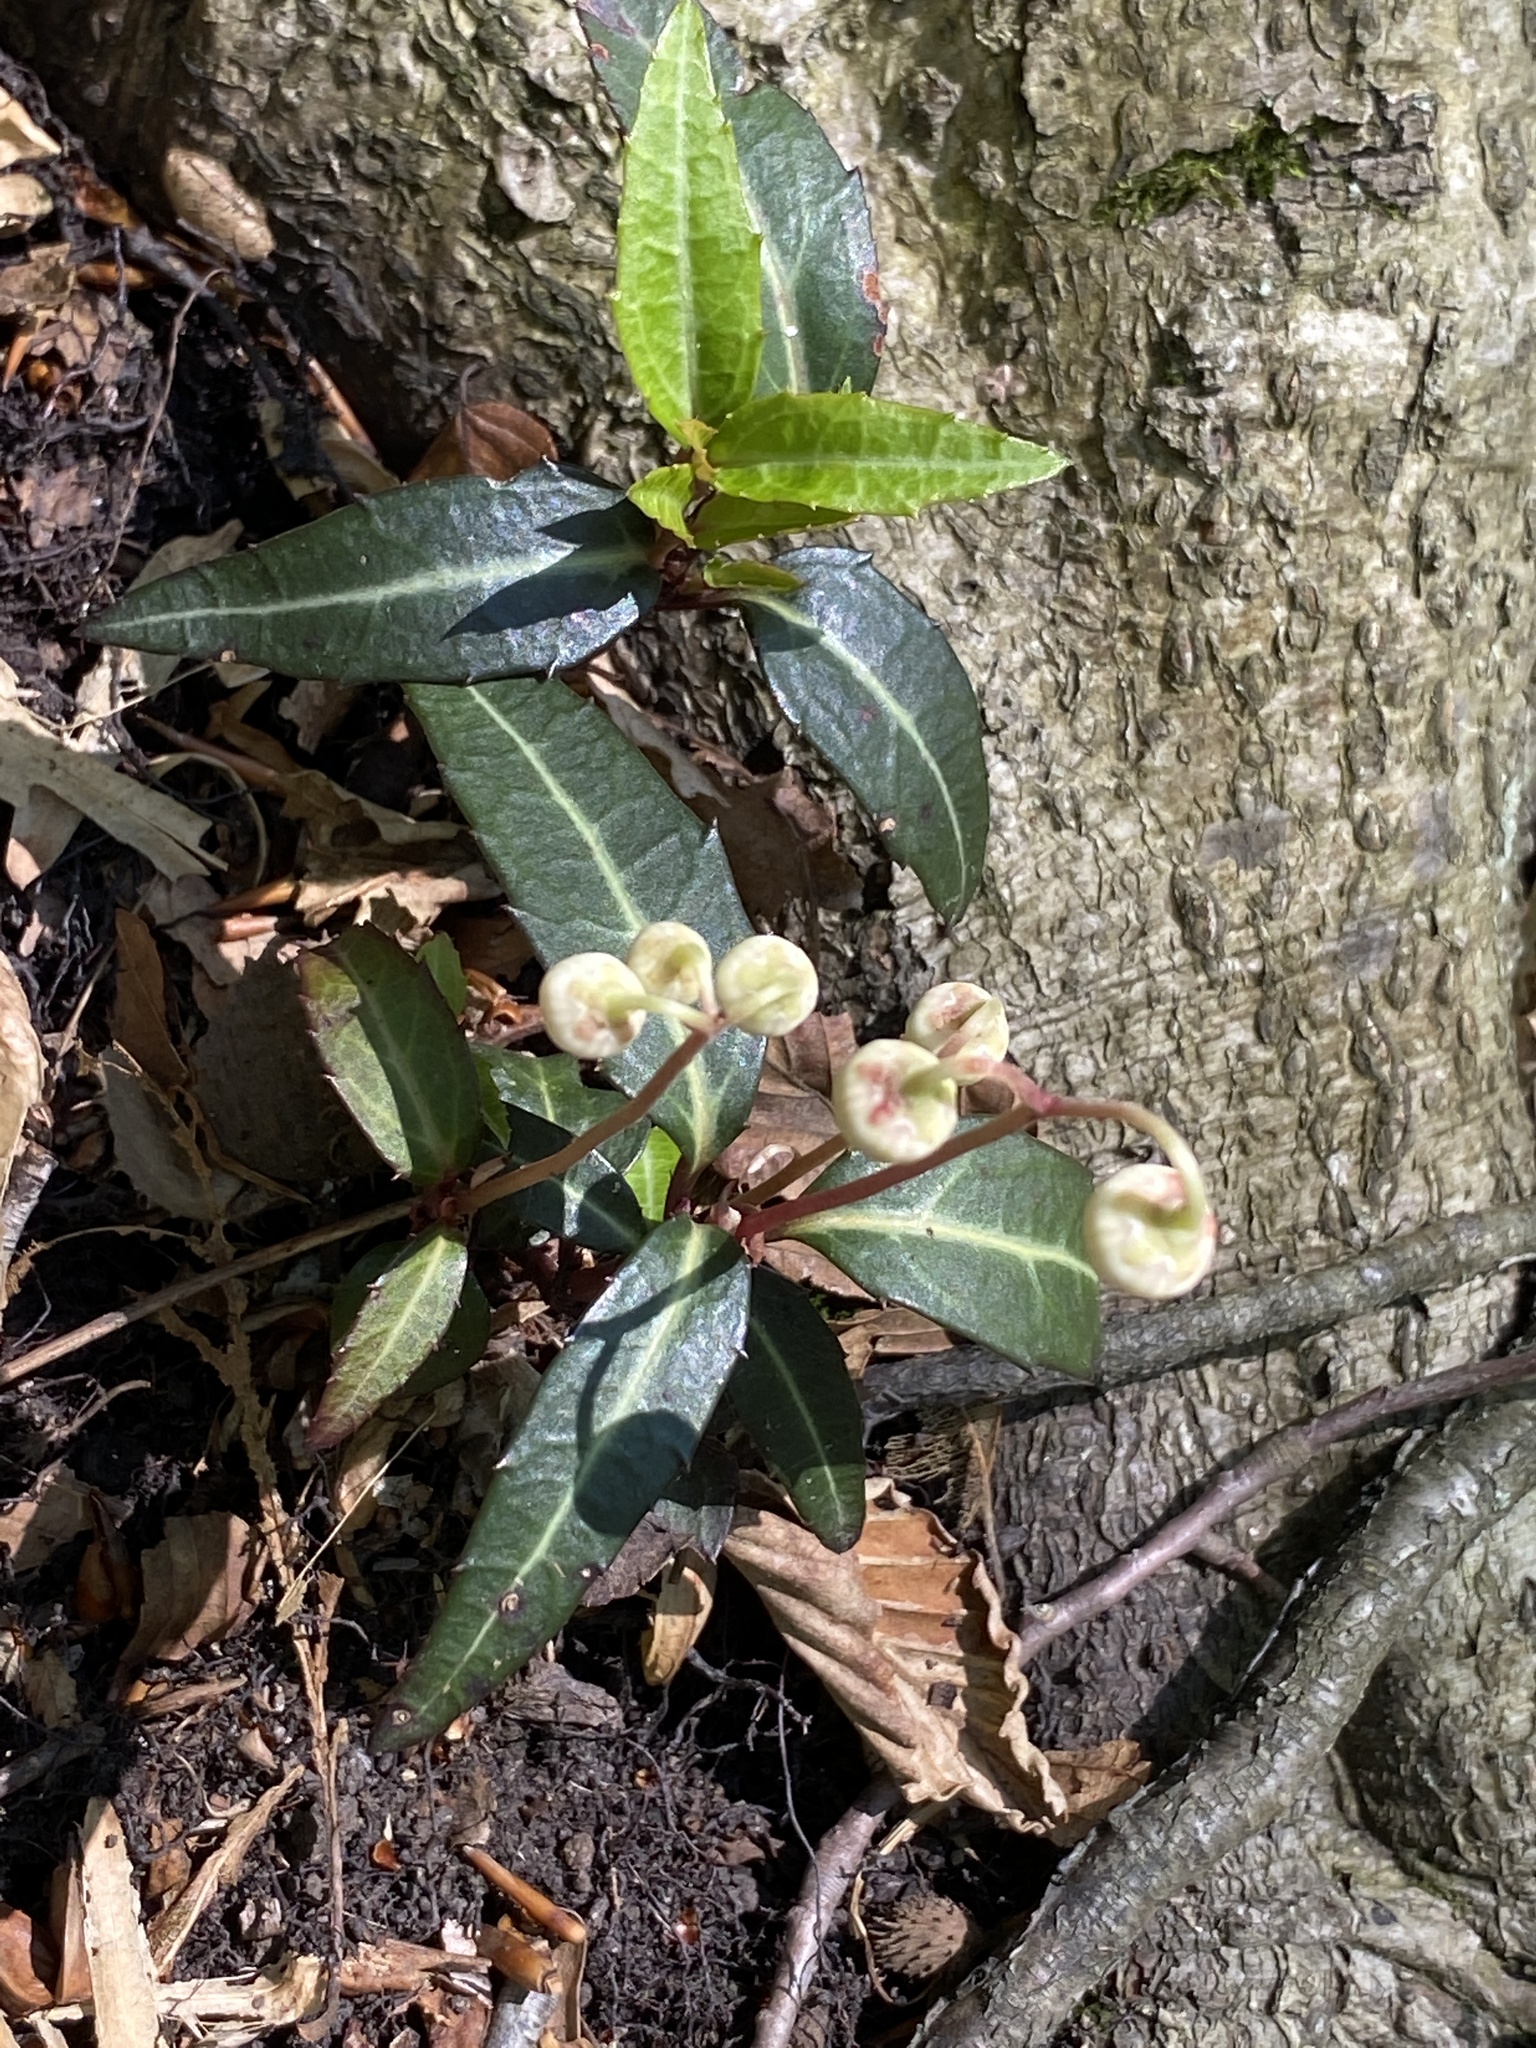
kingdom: Plantae
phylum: Tracheophyta
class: Magnoliopsida
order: Ericales
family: Ericaceae
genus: Chimaphila
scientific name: Chimaphila maculata
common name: Spotted pipsissewa
